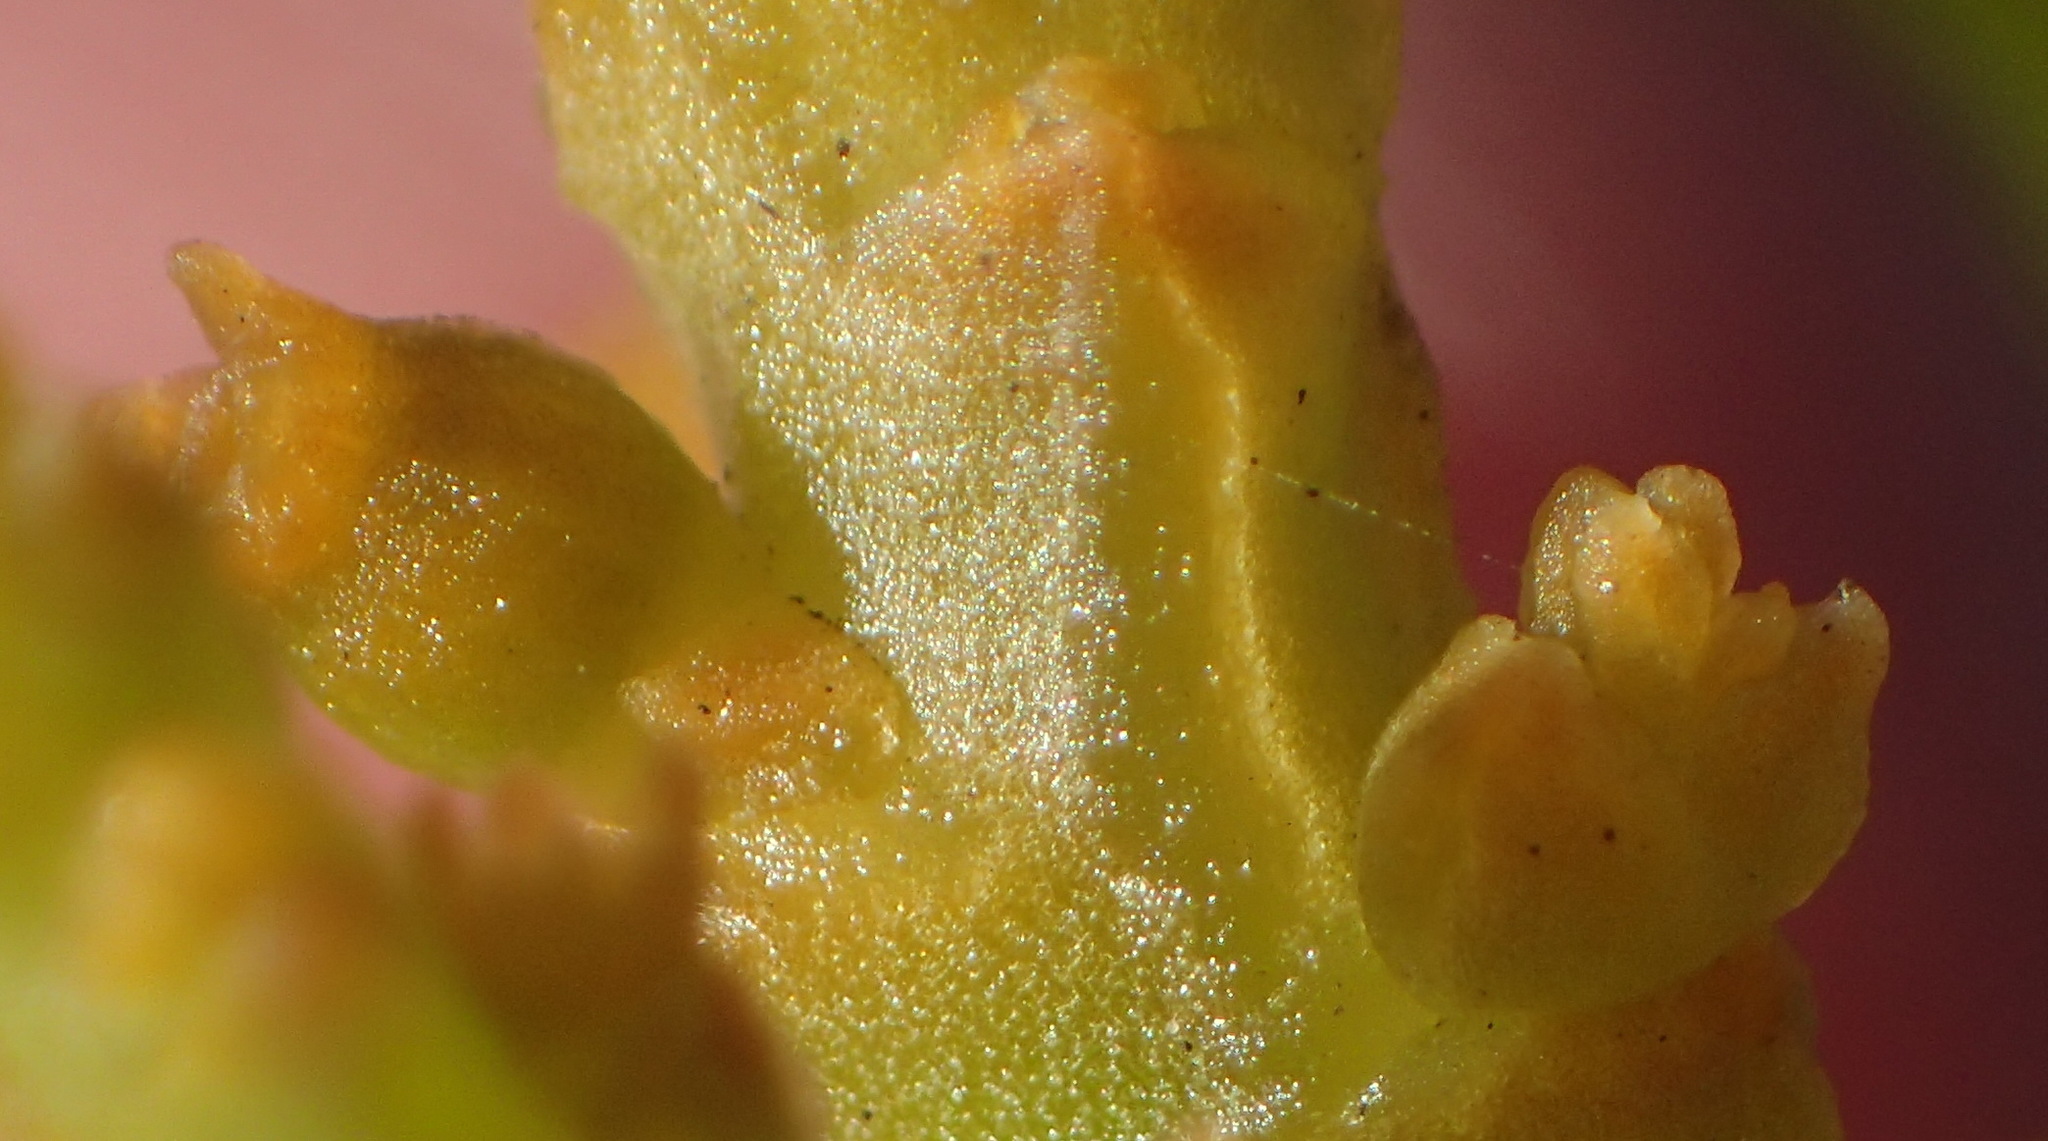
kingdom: Plantae
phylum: Tracheophyta
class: Magnoliopsida
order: Santalales
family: Thesiaceae
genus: Thesium
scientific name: Thesium confusum
